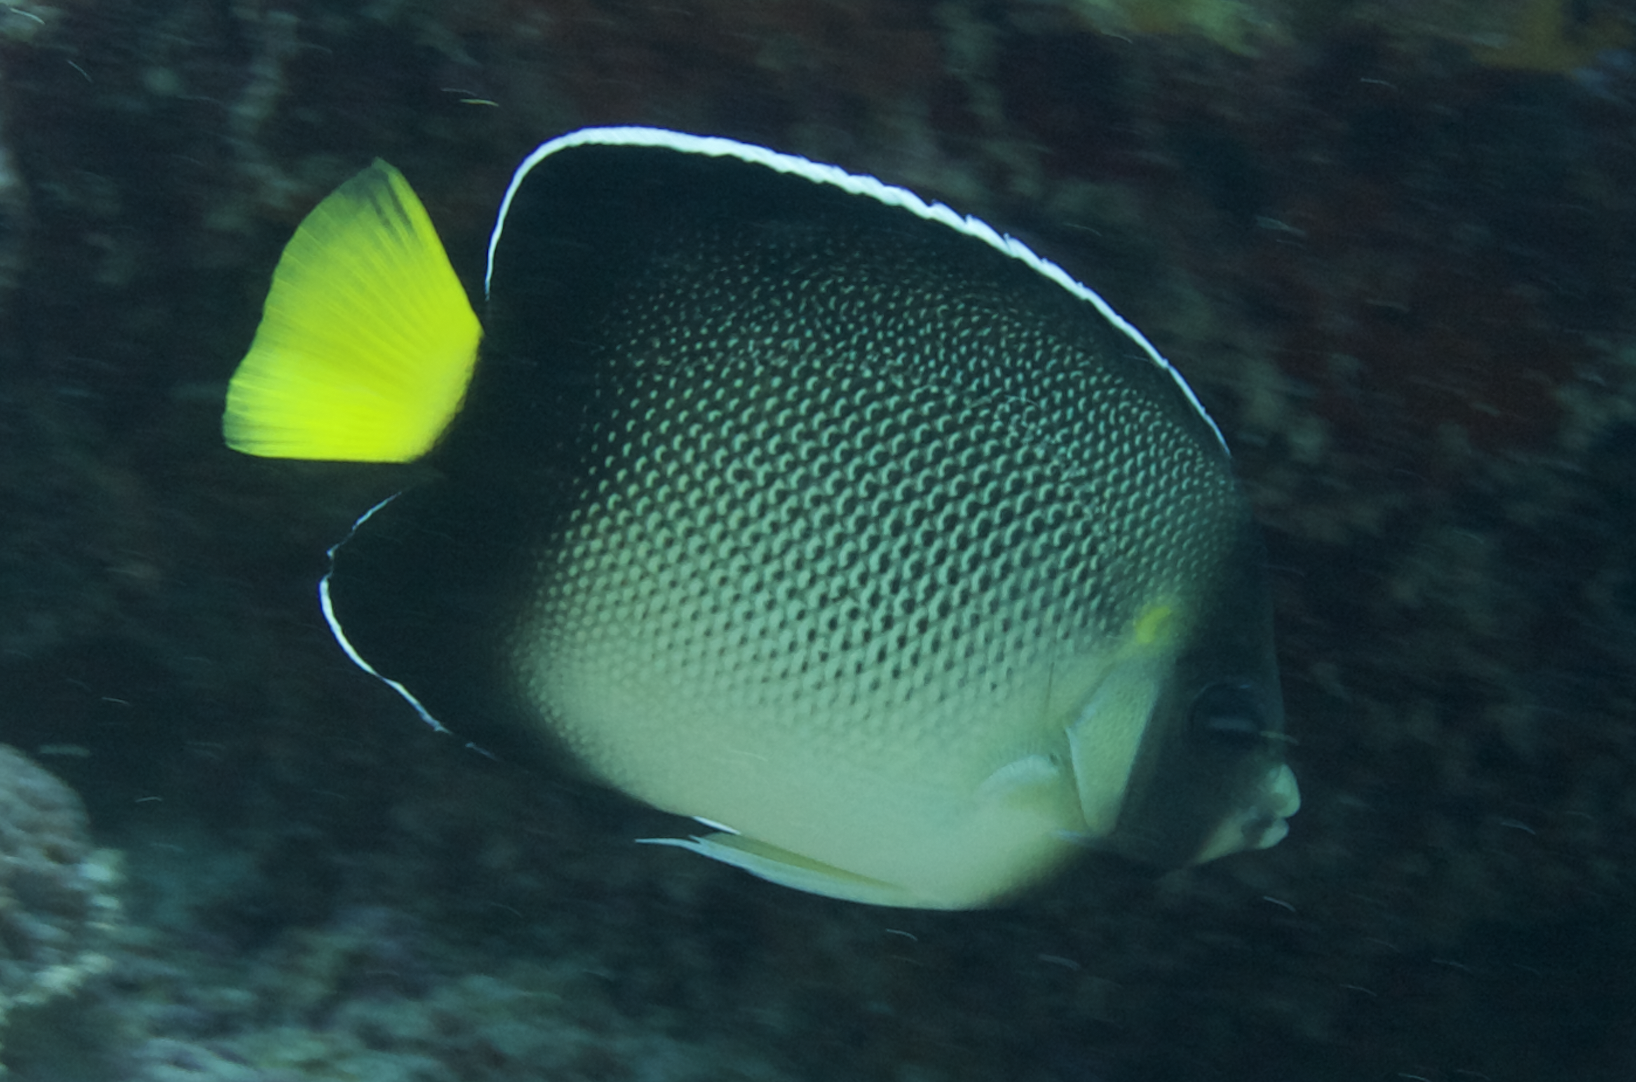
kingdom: Animalia
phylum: Chordata
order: Perciformes
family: Pomacanthidae
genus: Apolemichthys
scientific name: Apolemichthys xanthurus
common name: Indian yellowtail angelfish
